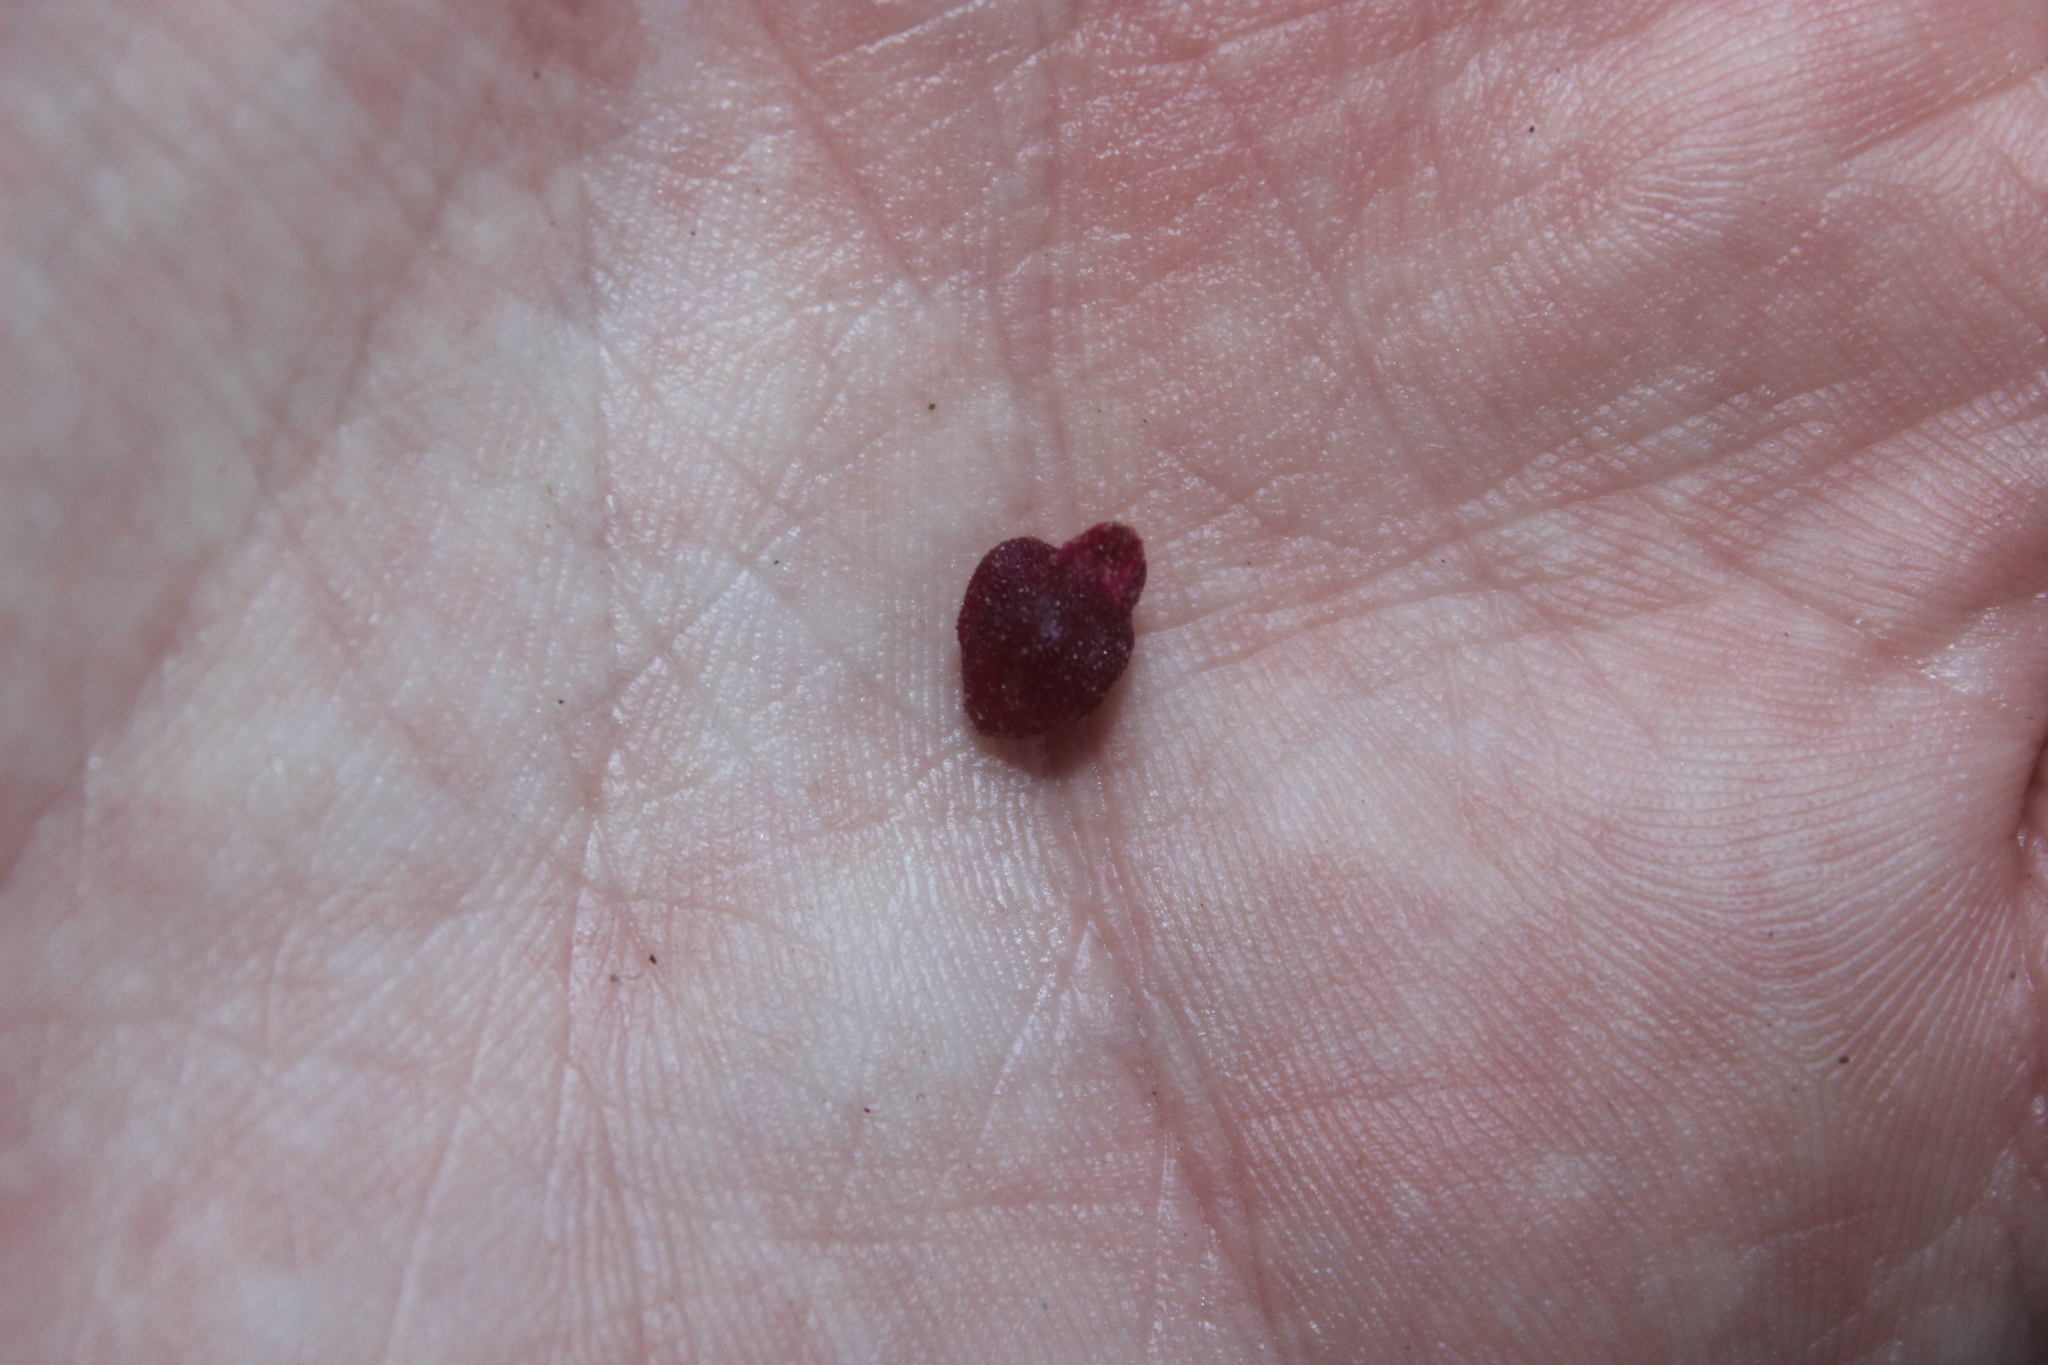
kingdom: Plantae
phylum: Tracheophyta
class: Magnoliopsida
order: Caryophyllales
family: Aizoaceae
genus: Tetragonia
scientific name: Tetragonia implexicoma
